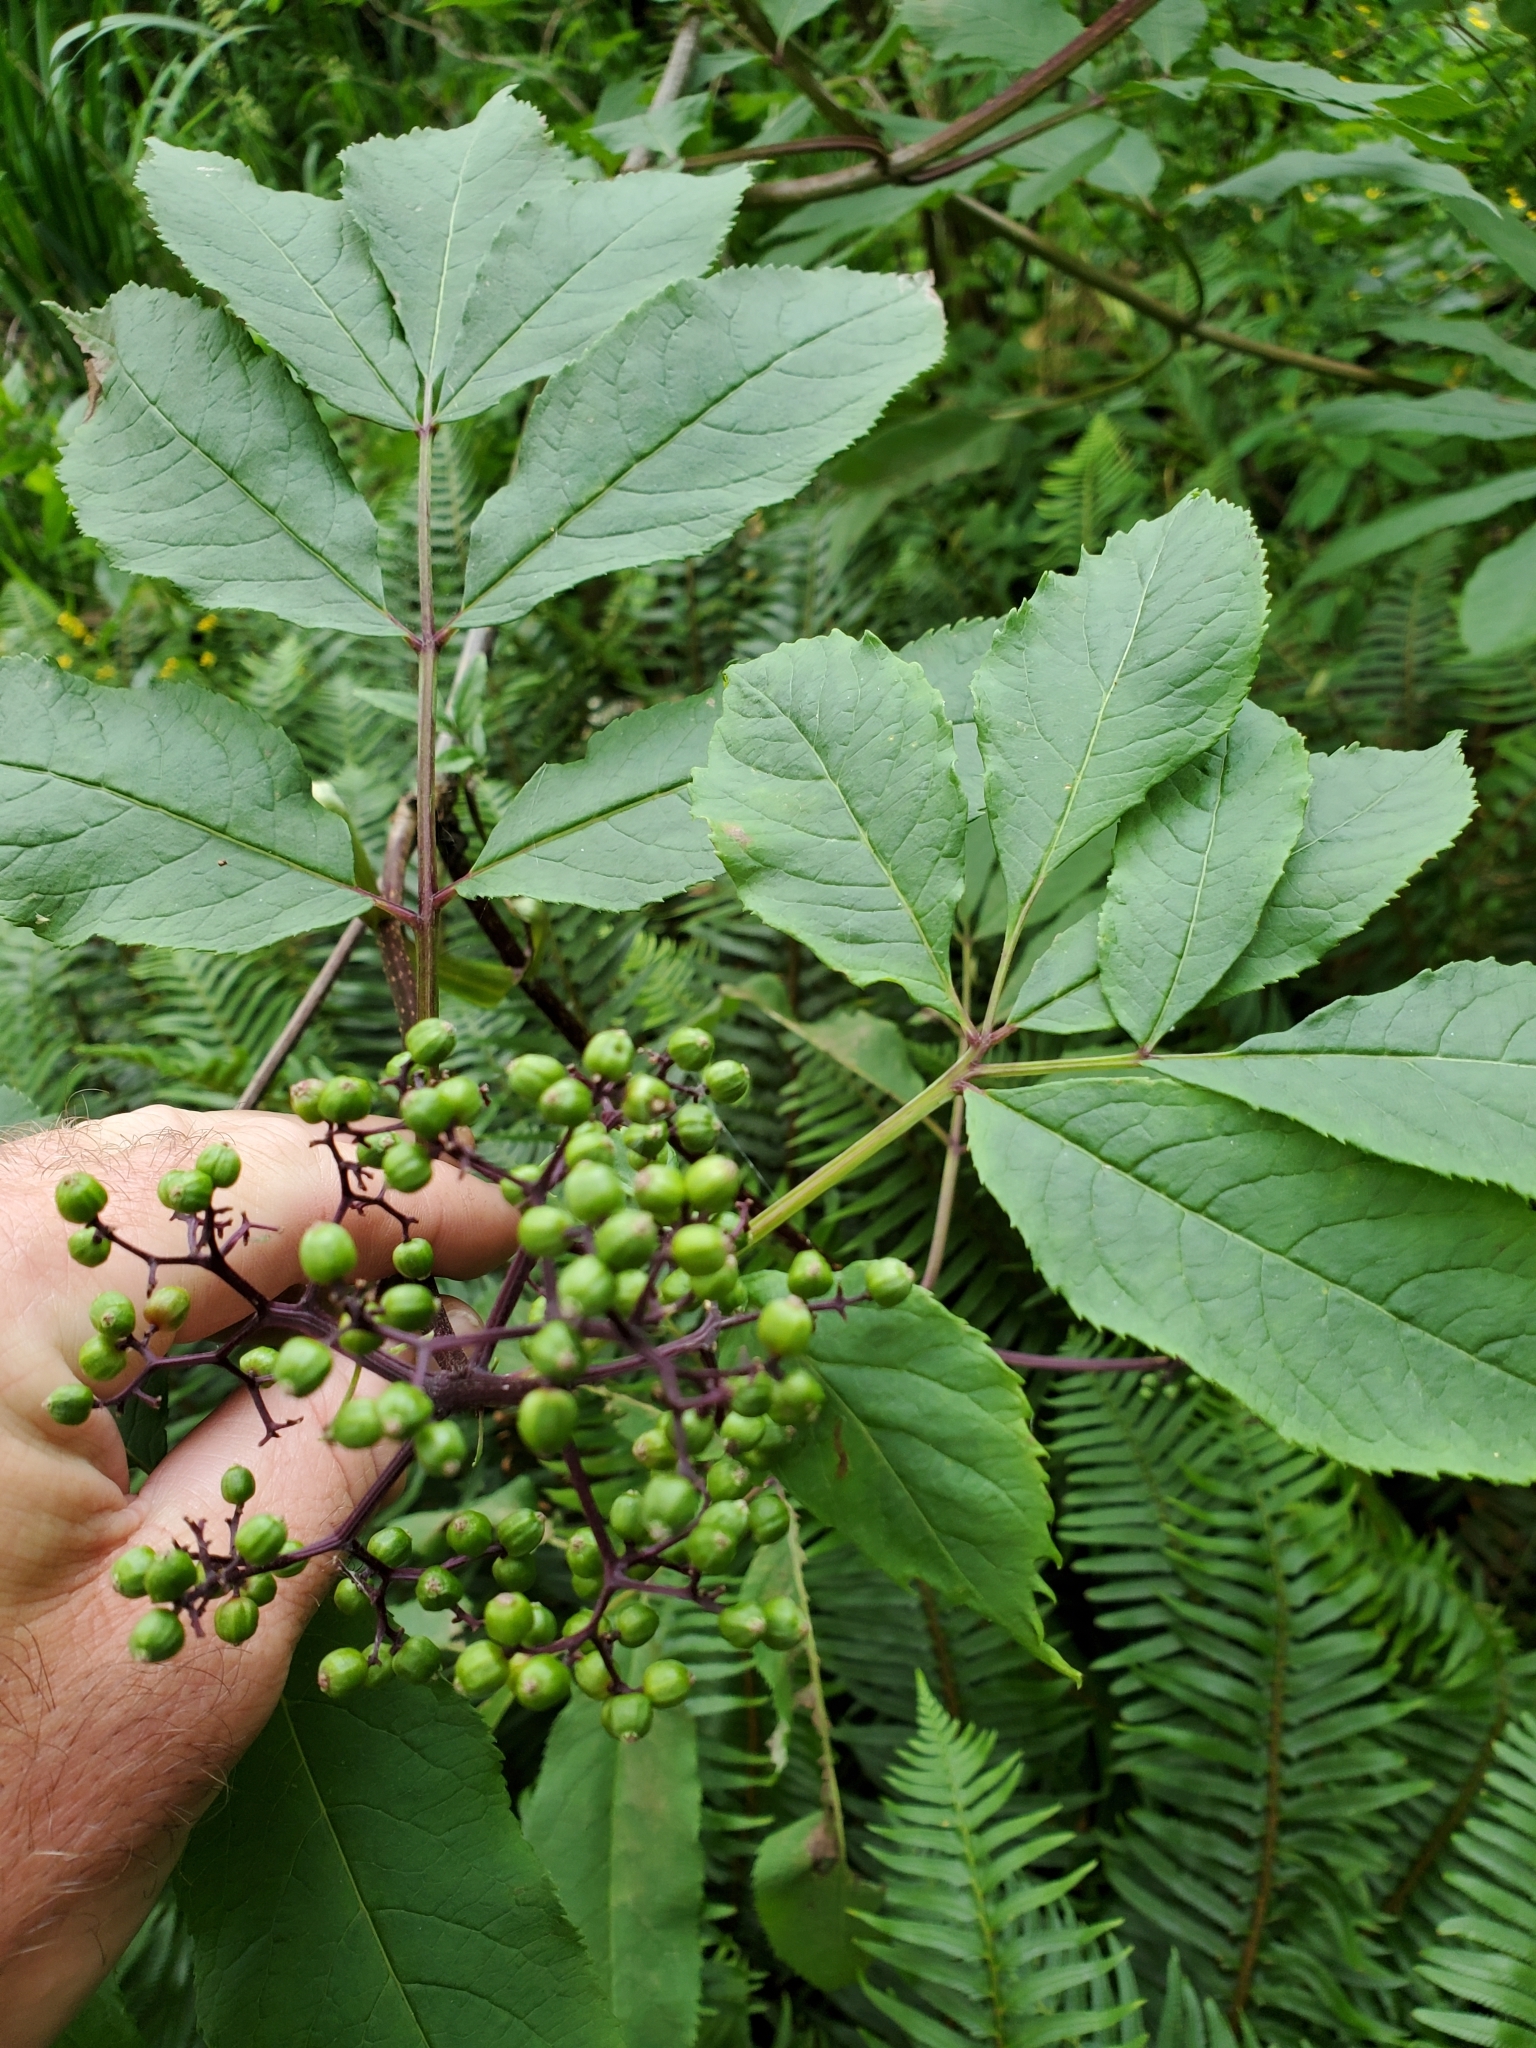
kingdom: Plantae
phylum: Tracheophyta
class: Magnoliopsida
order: Dipsacales
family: Viburnaceae
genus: Sambucus
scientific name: Sambucus racemosa
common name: Red-berried elder
